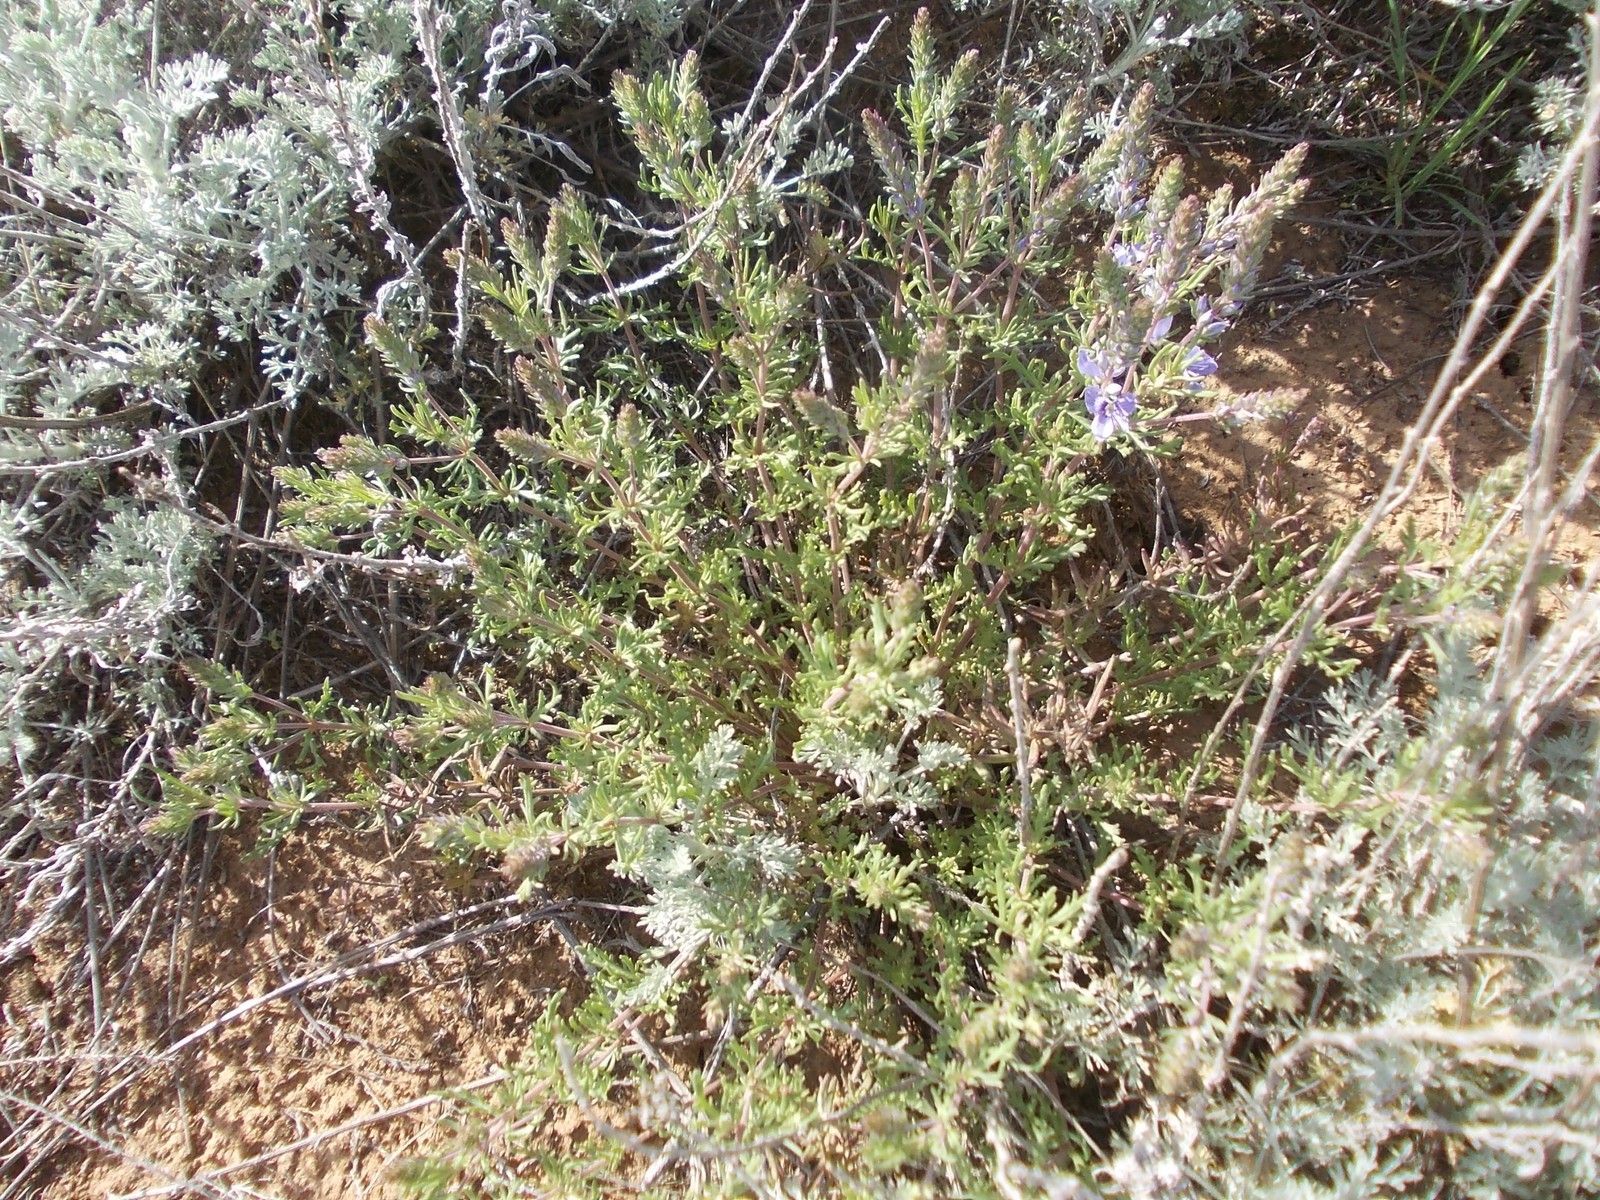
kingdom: Plantae
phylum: Tracheophyta
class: Magnoliopsida
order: Lamiales
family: Plantaginaceae
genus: Veronica
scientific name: Veronica multifida
